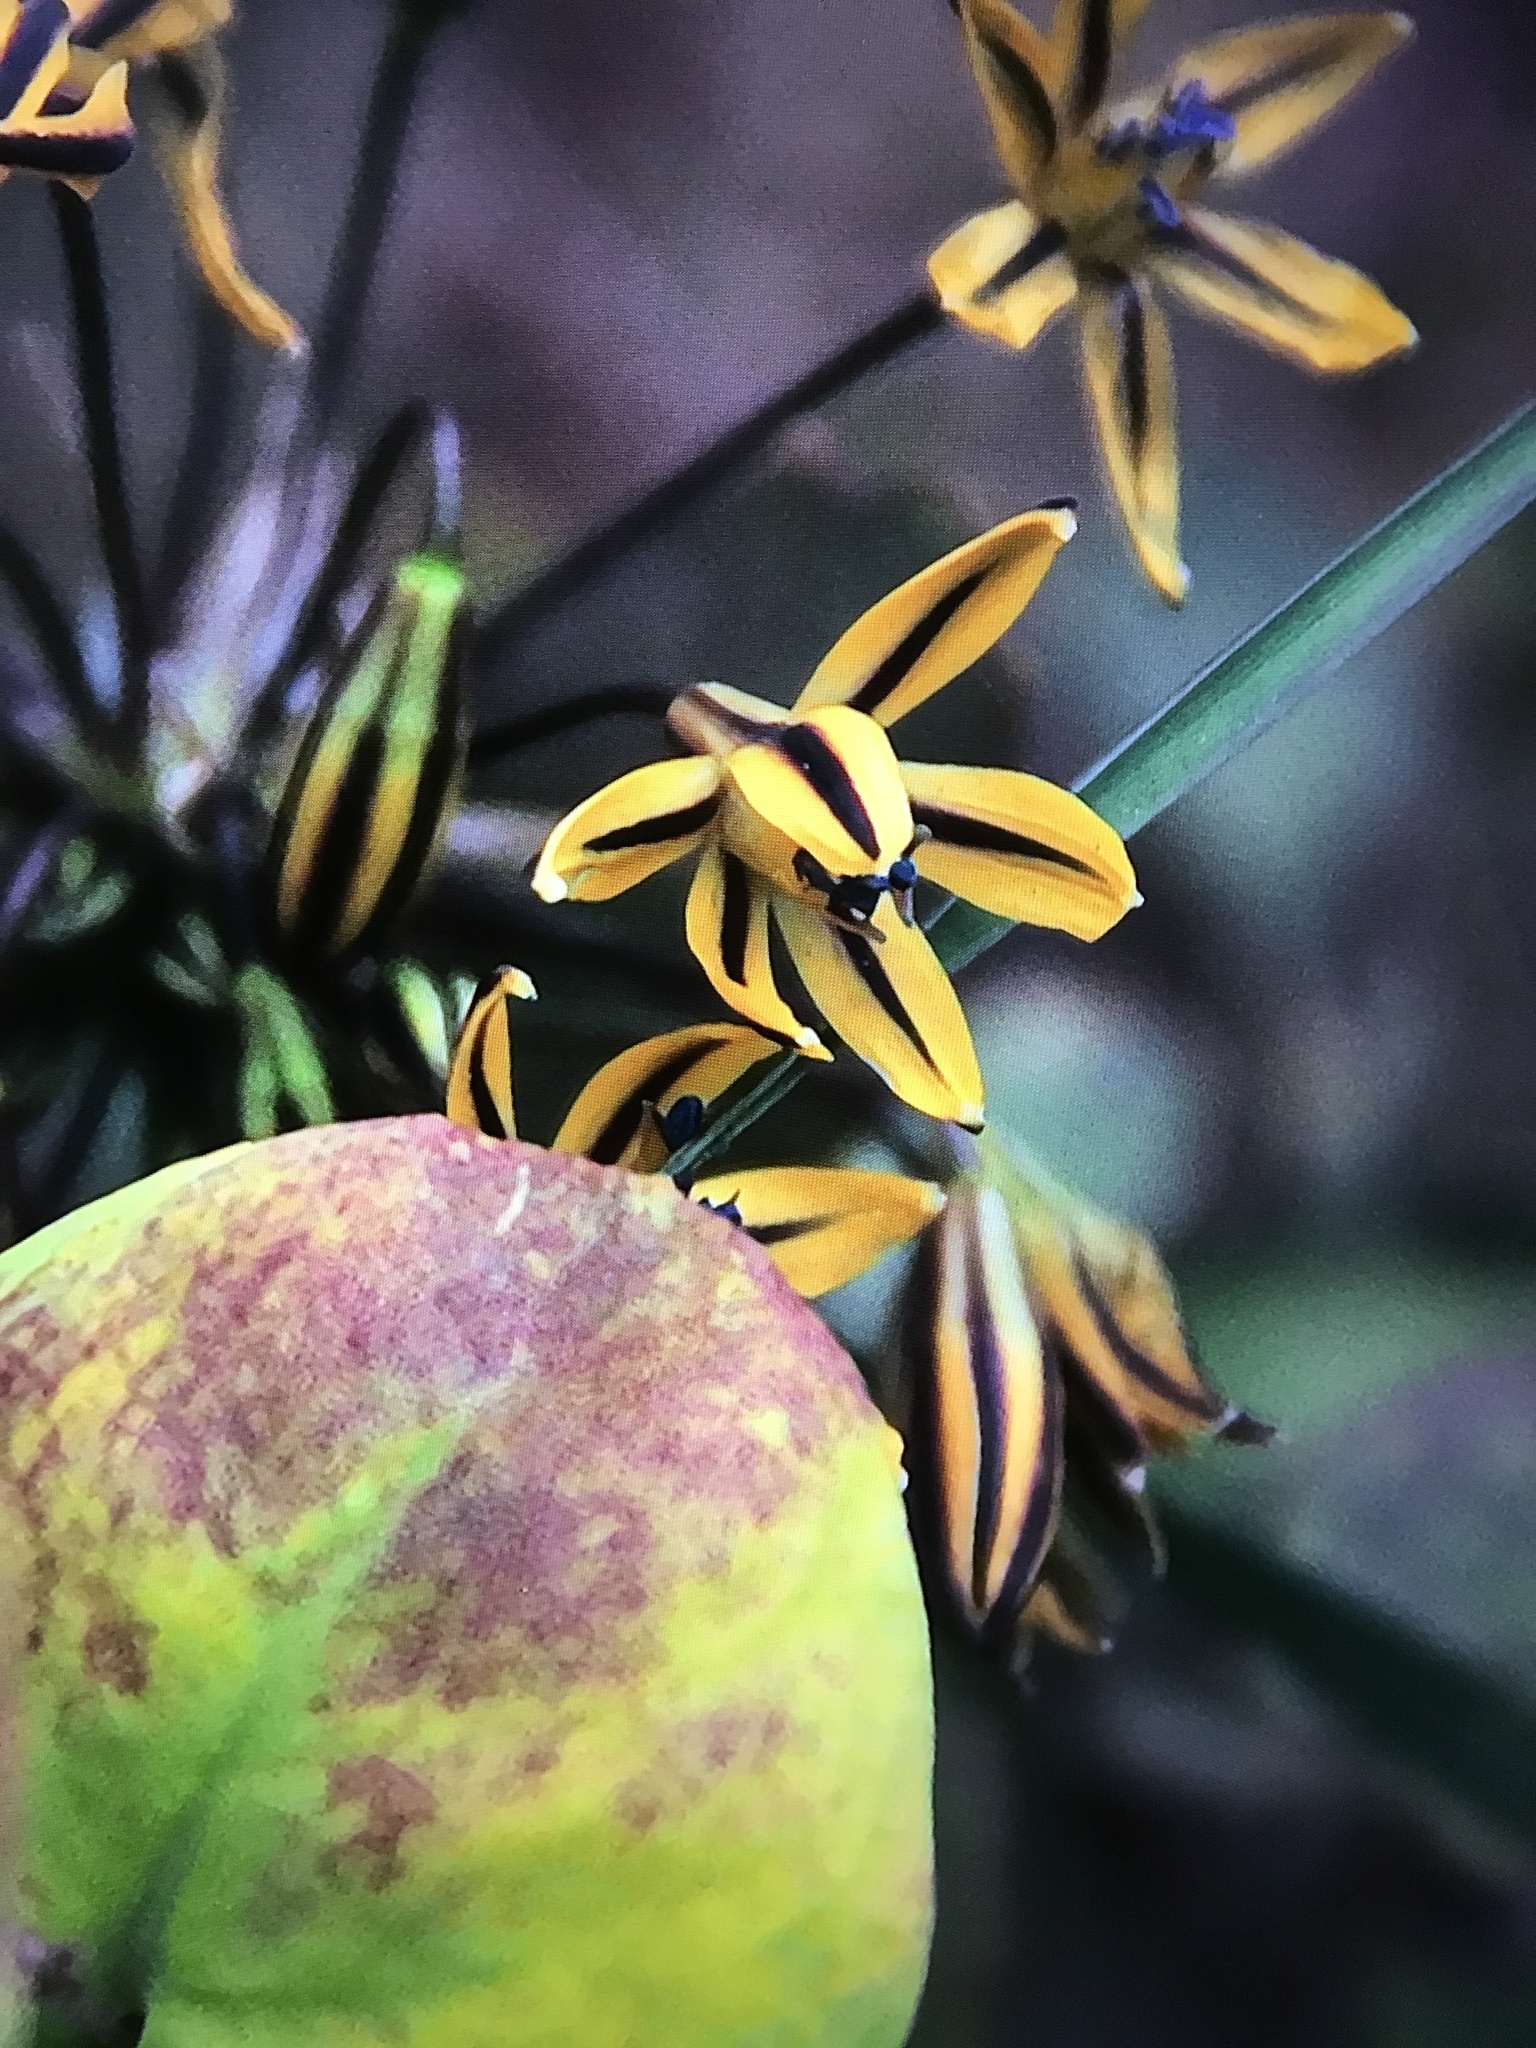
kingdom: Plantae
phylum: Tracheophyta
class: Liliopsida
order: Asparagales
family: Asparagaceae
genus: Triteleia
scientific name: Triteleia ixioides
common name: Yellow-brodiaea
